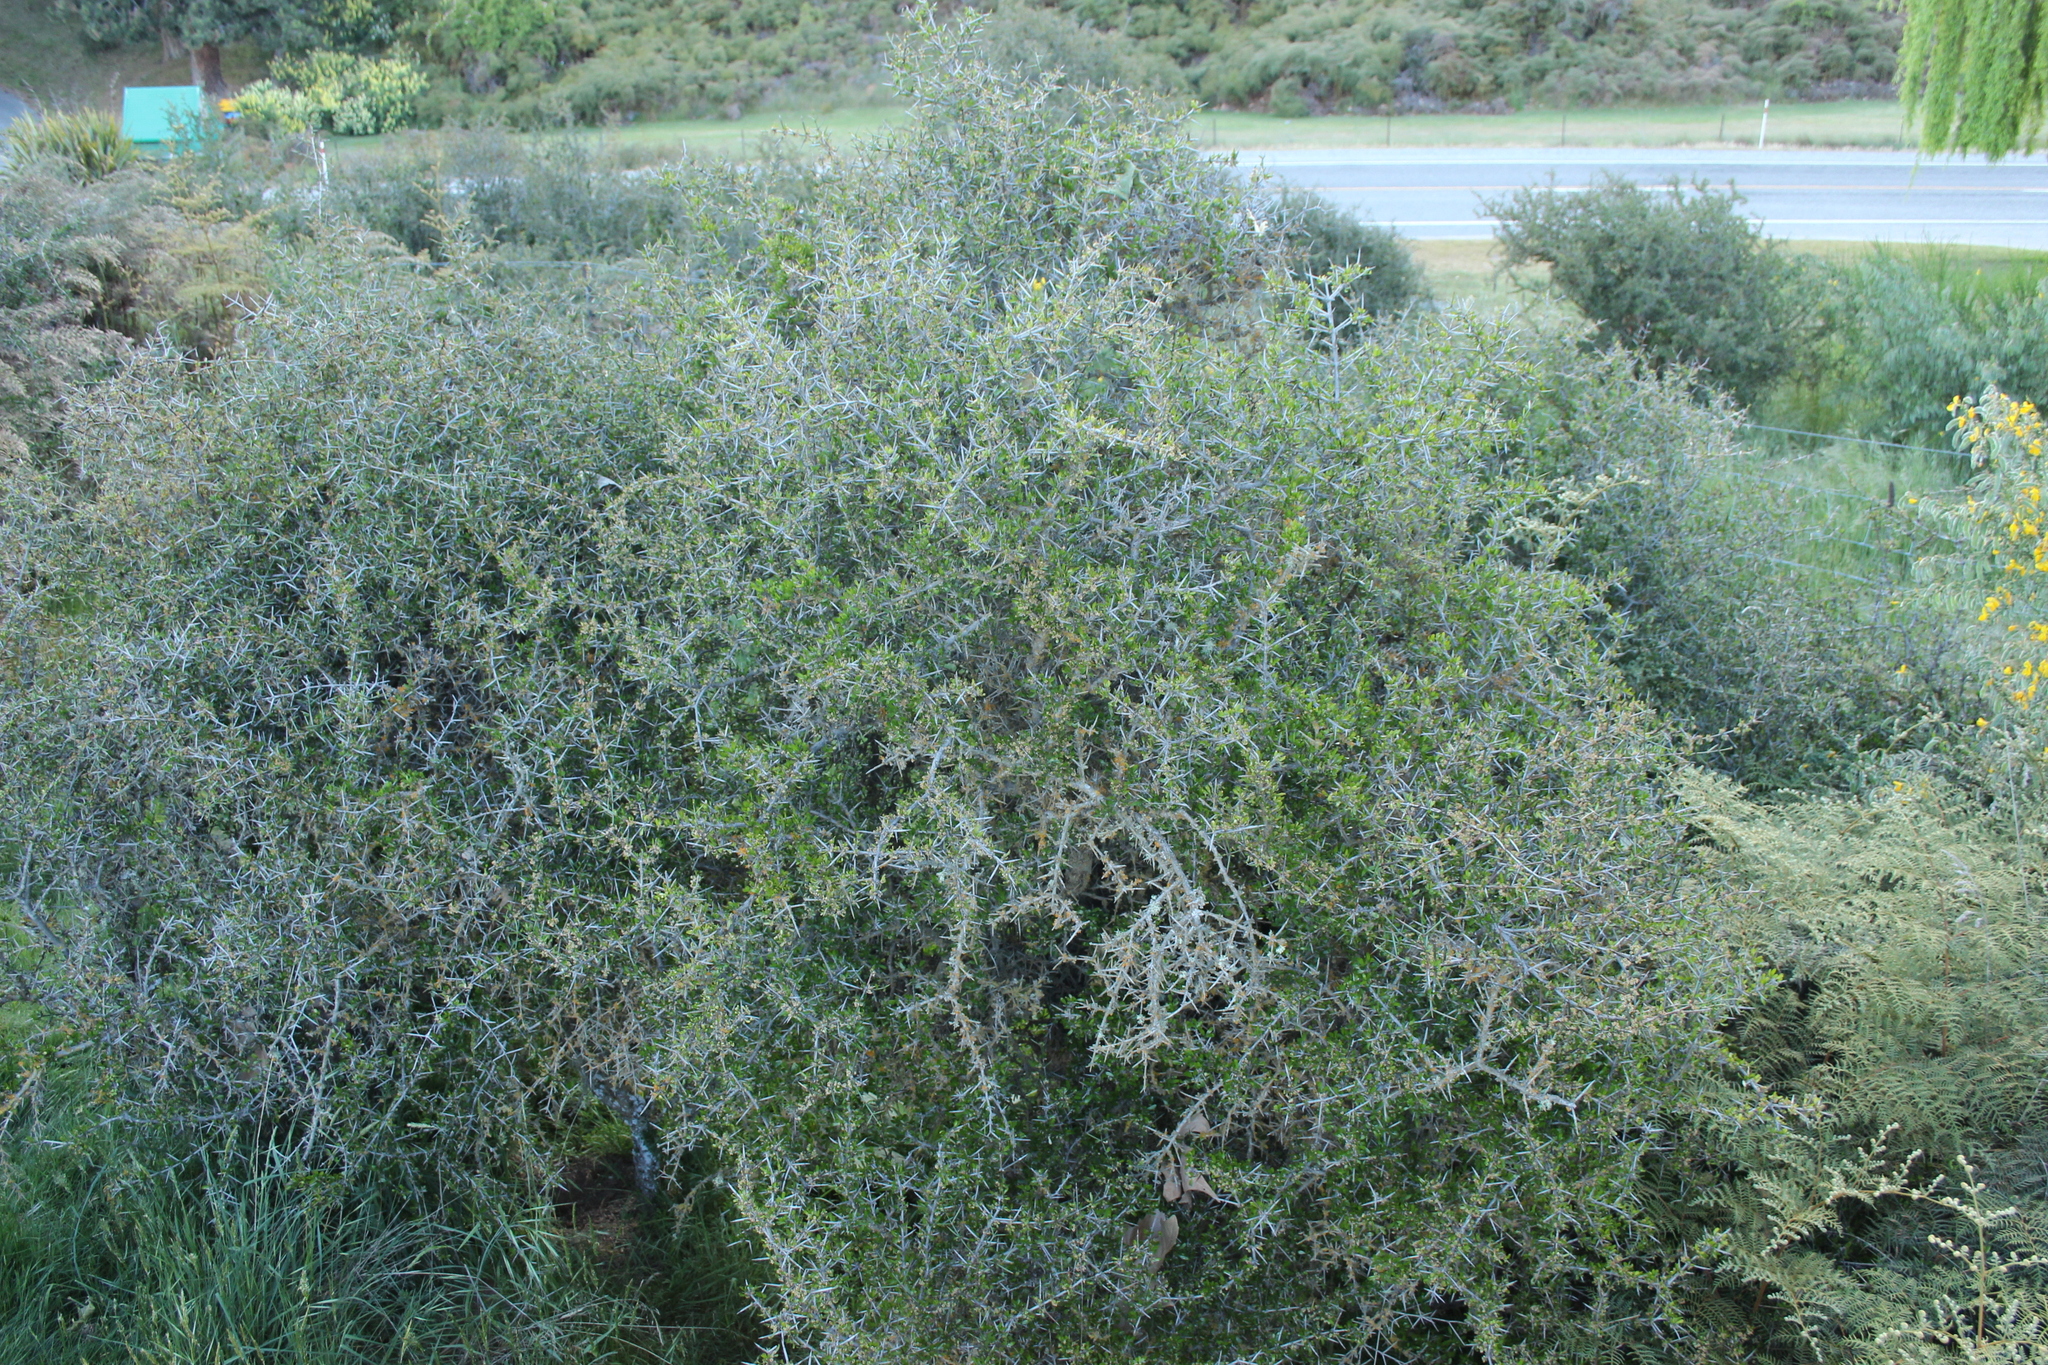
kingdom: Plantae
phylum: Tracheophyta
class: Magnoliopsida
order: Rosales
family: Rhamnaceae
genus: Discaria
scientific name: Discaria toumatou
